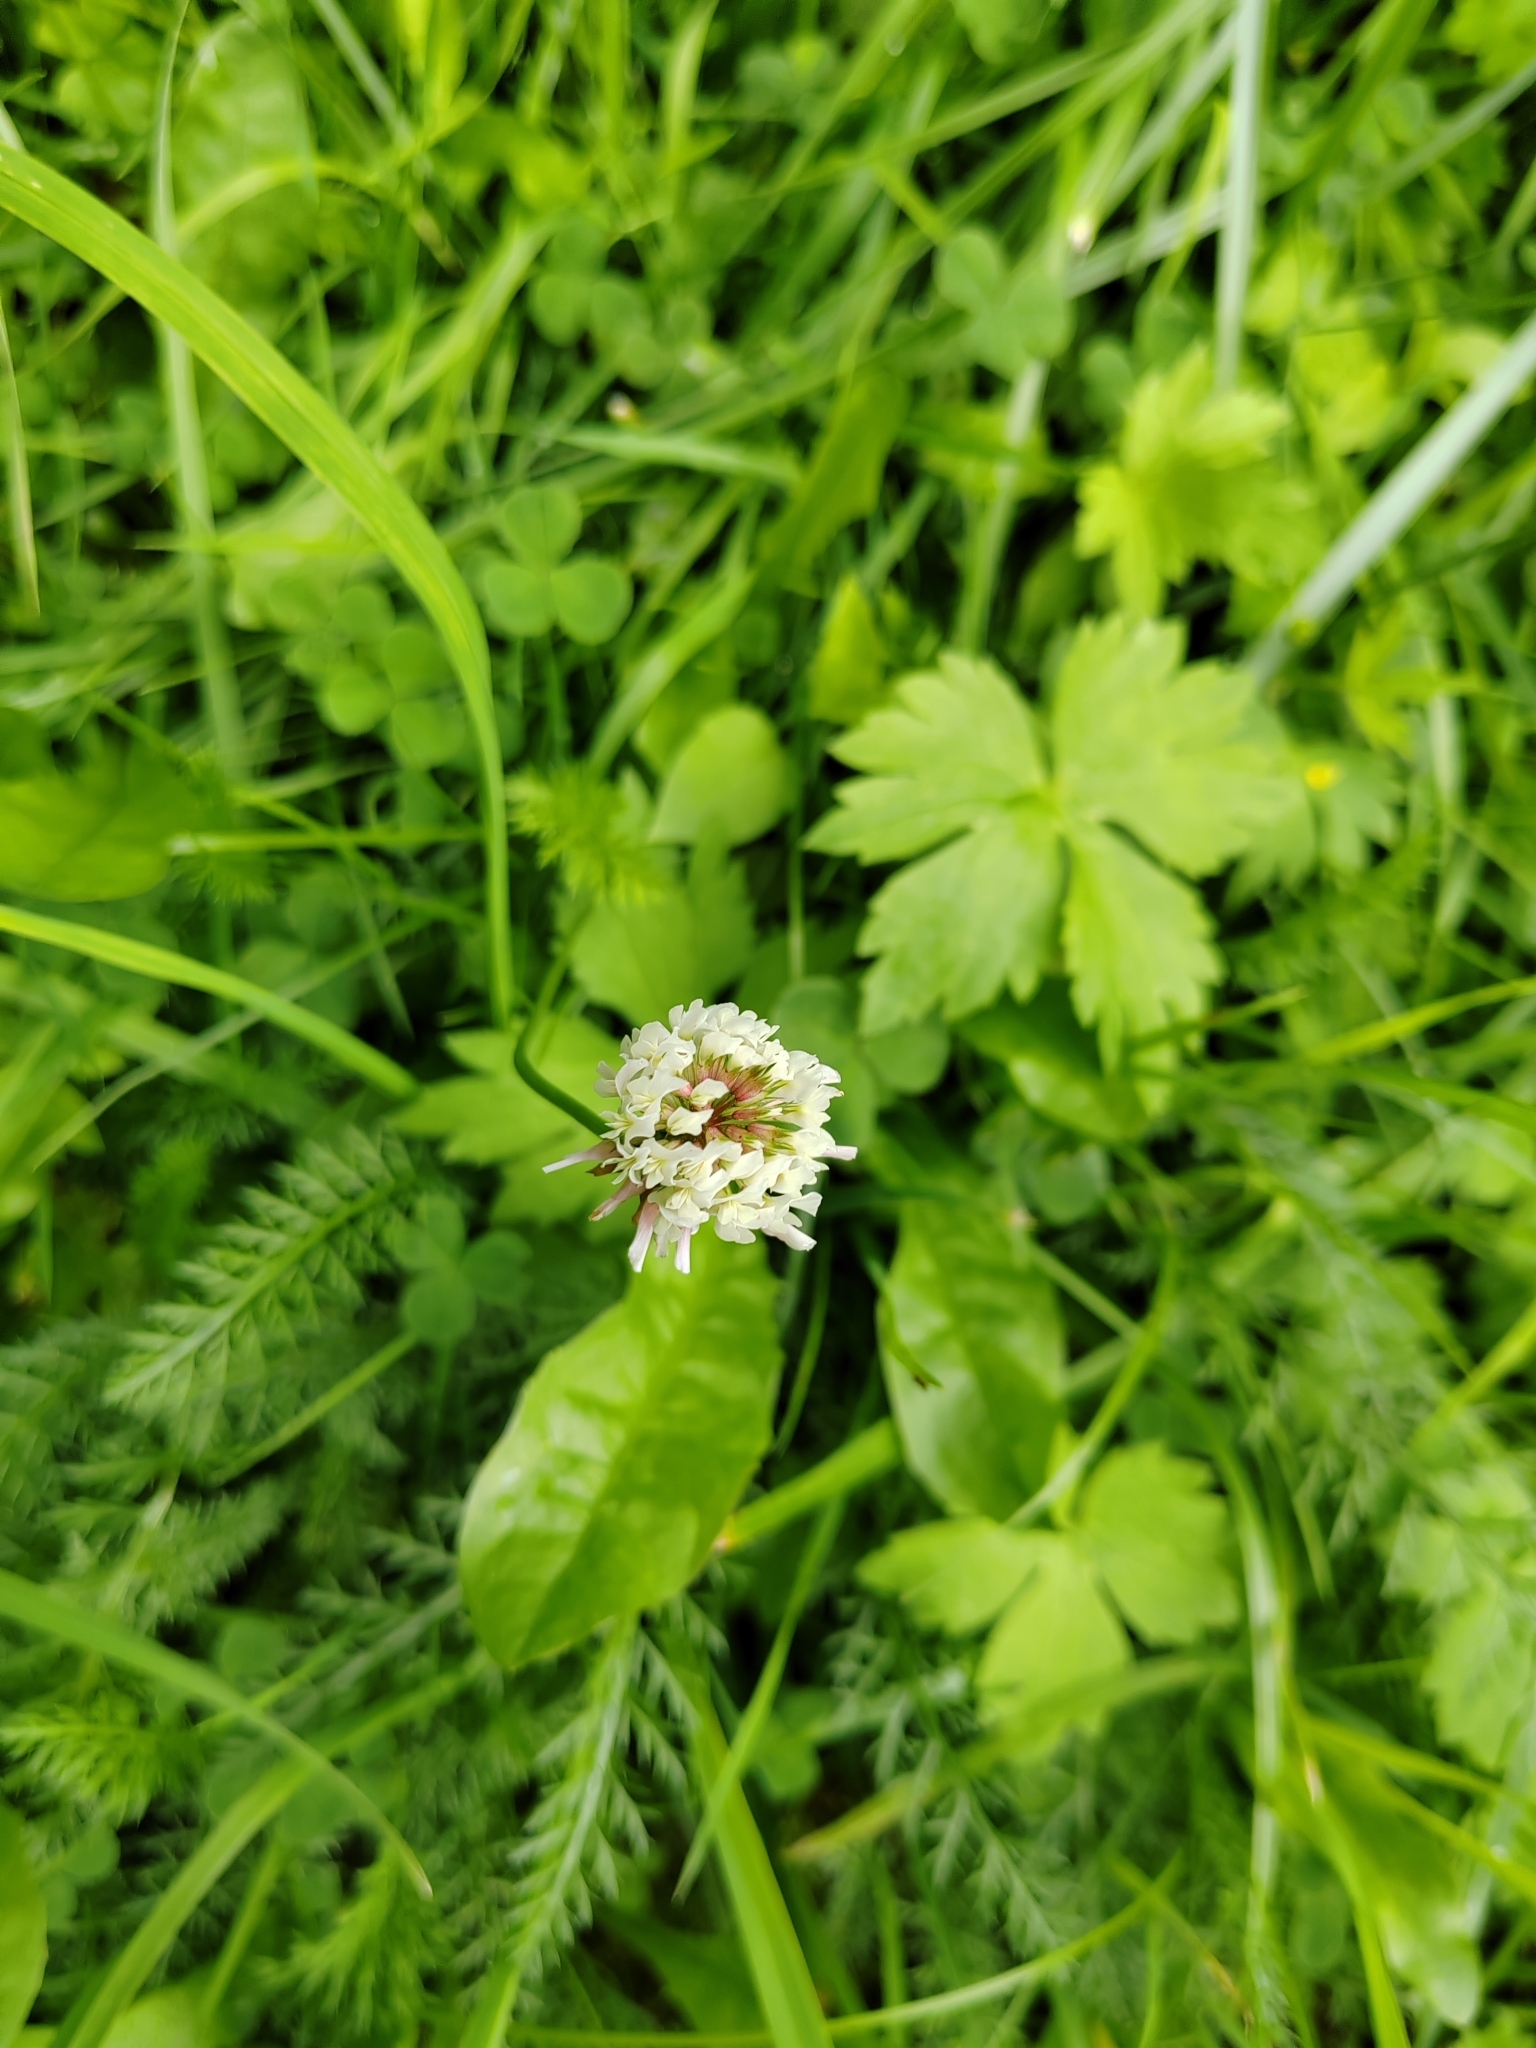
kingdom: Plantae
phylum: Tracheophyta
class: Magnoliopsida
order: Fabales
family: Fabaceae
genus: Trifolium
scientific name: Trifolium repens
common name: White clover
